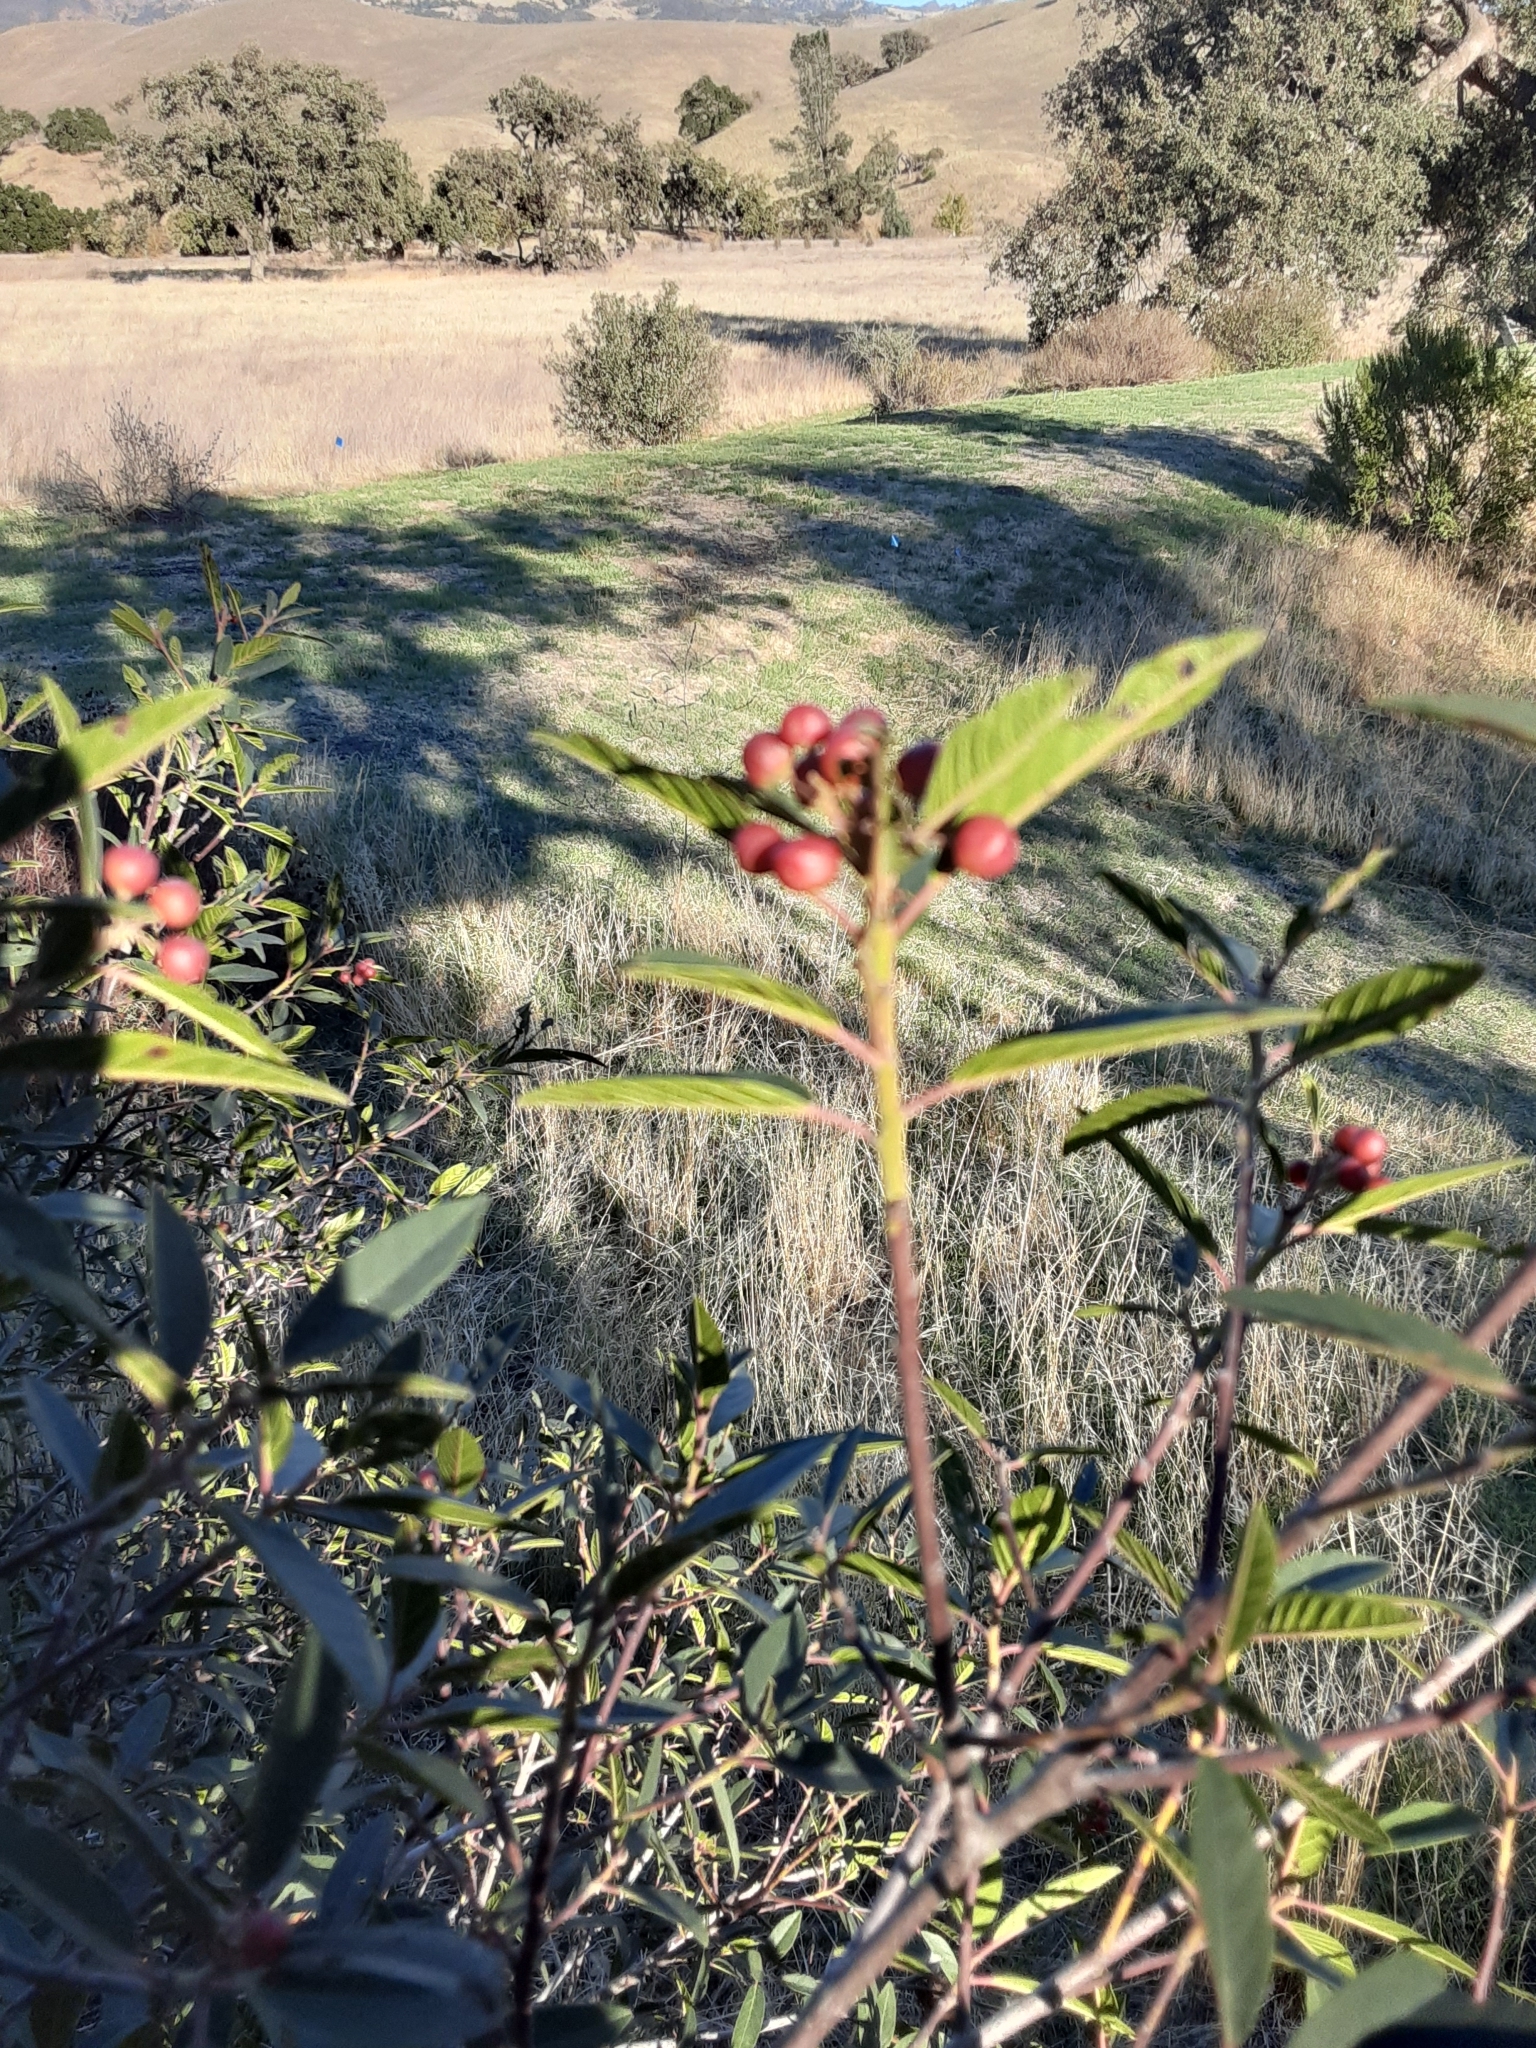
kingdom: Plantae
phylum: Tracheophyta
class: Magnoliopsida
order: Rosales
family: Rhamnaceae
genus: Frangula
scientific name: Frangula californica
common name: California buckthorn
